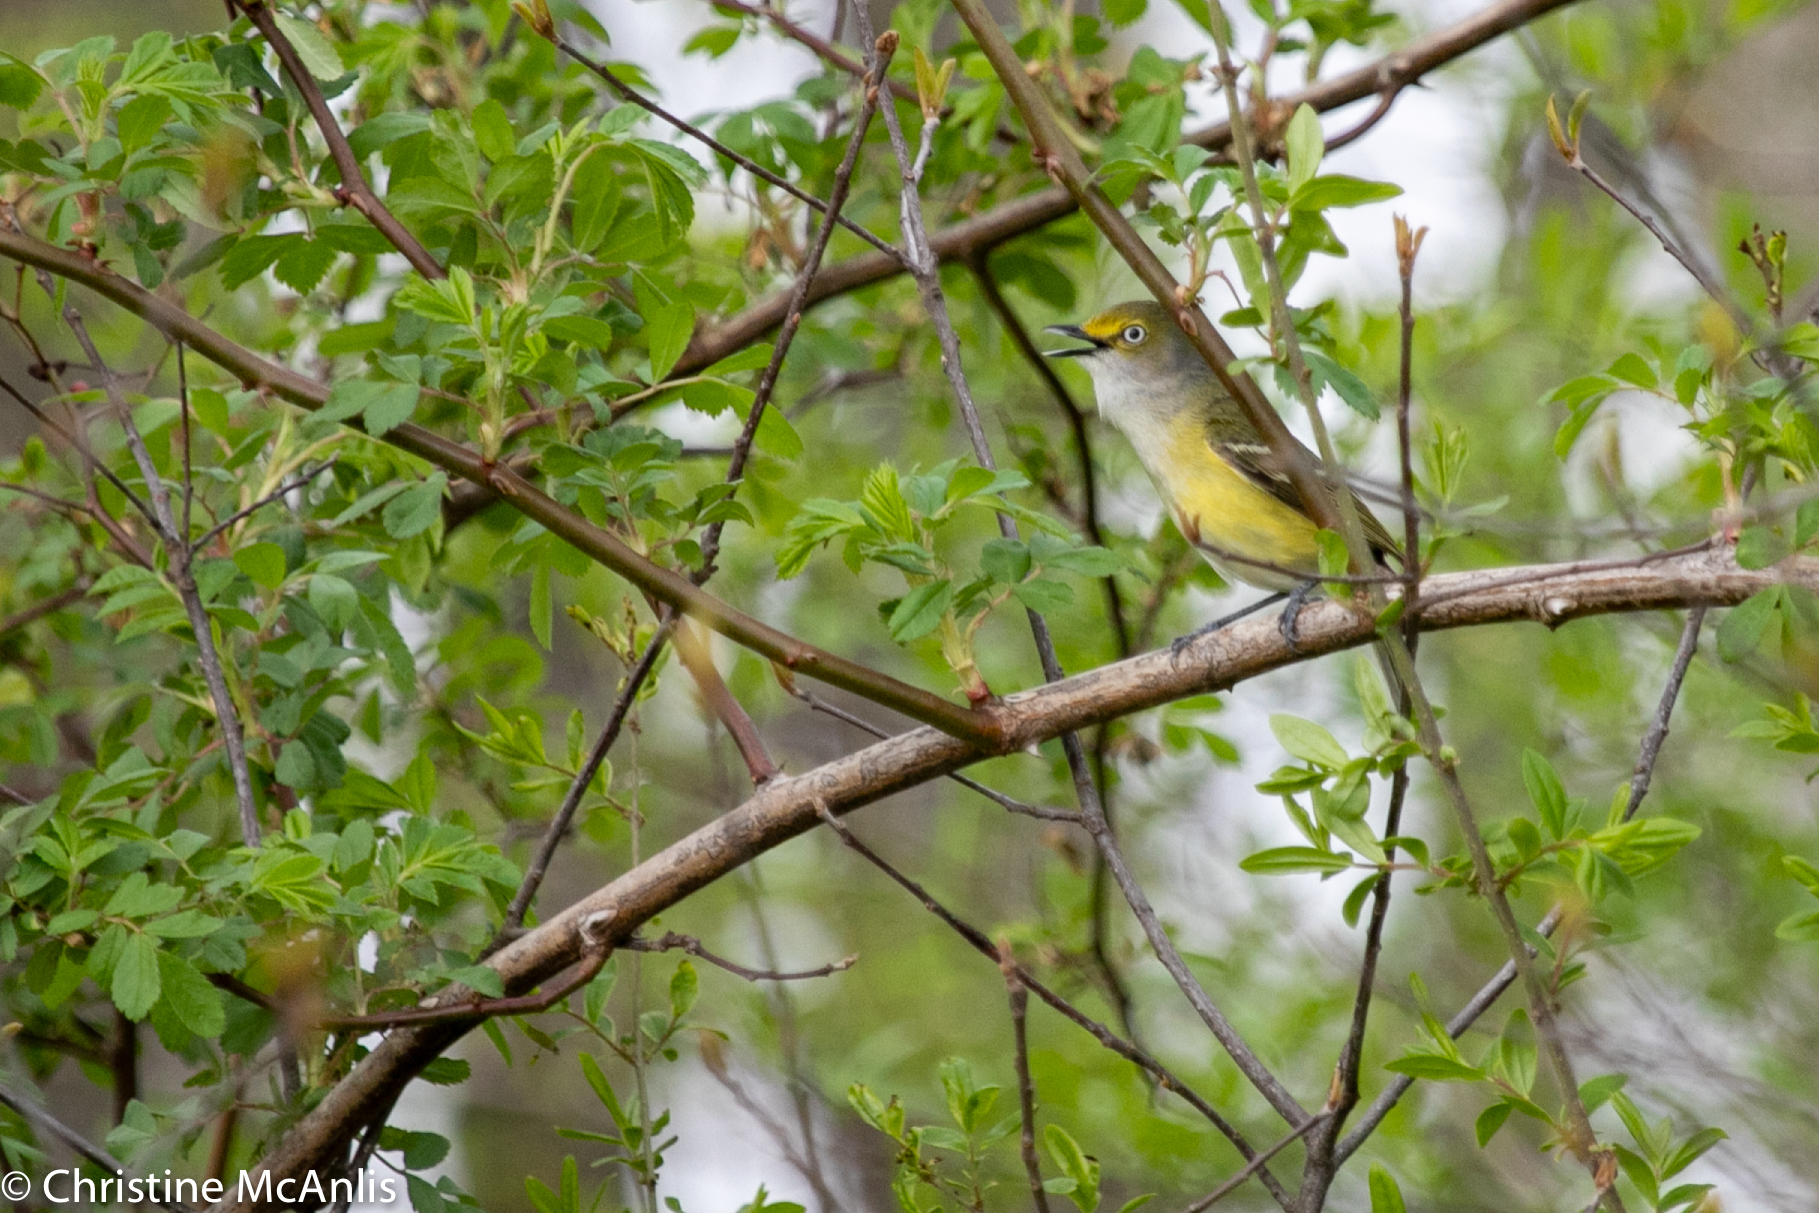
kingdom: Animalia
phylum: Chordata
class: Aves
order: Passeriformes
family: Vireonidae
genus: Vireo
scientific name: Vireo griseus
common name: White-eyed vireo
